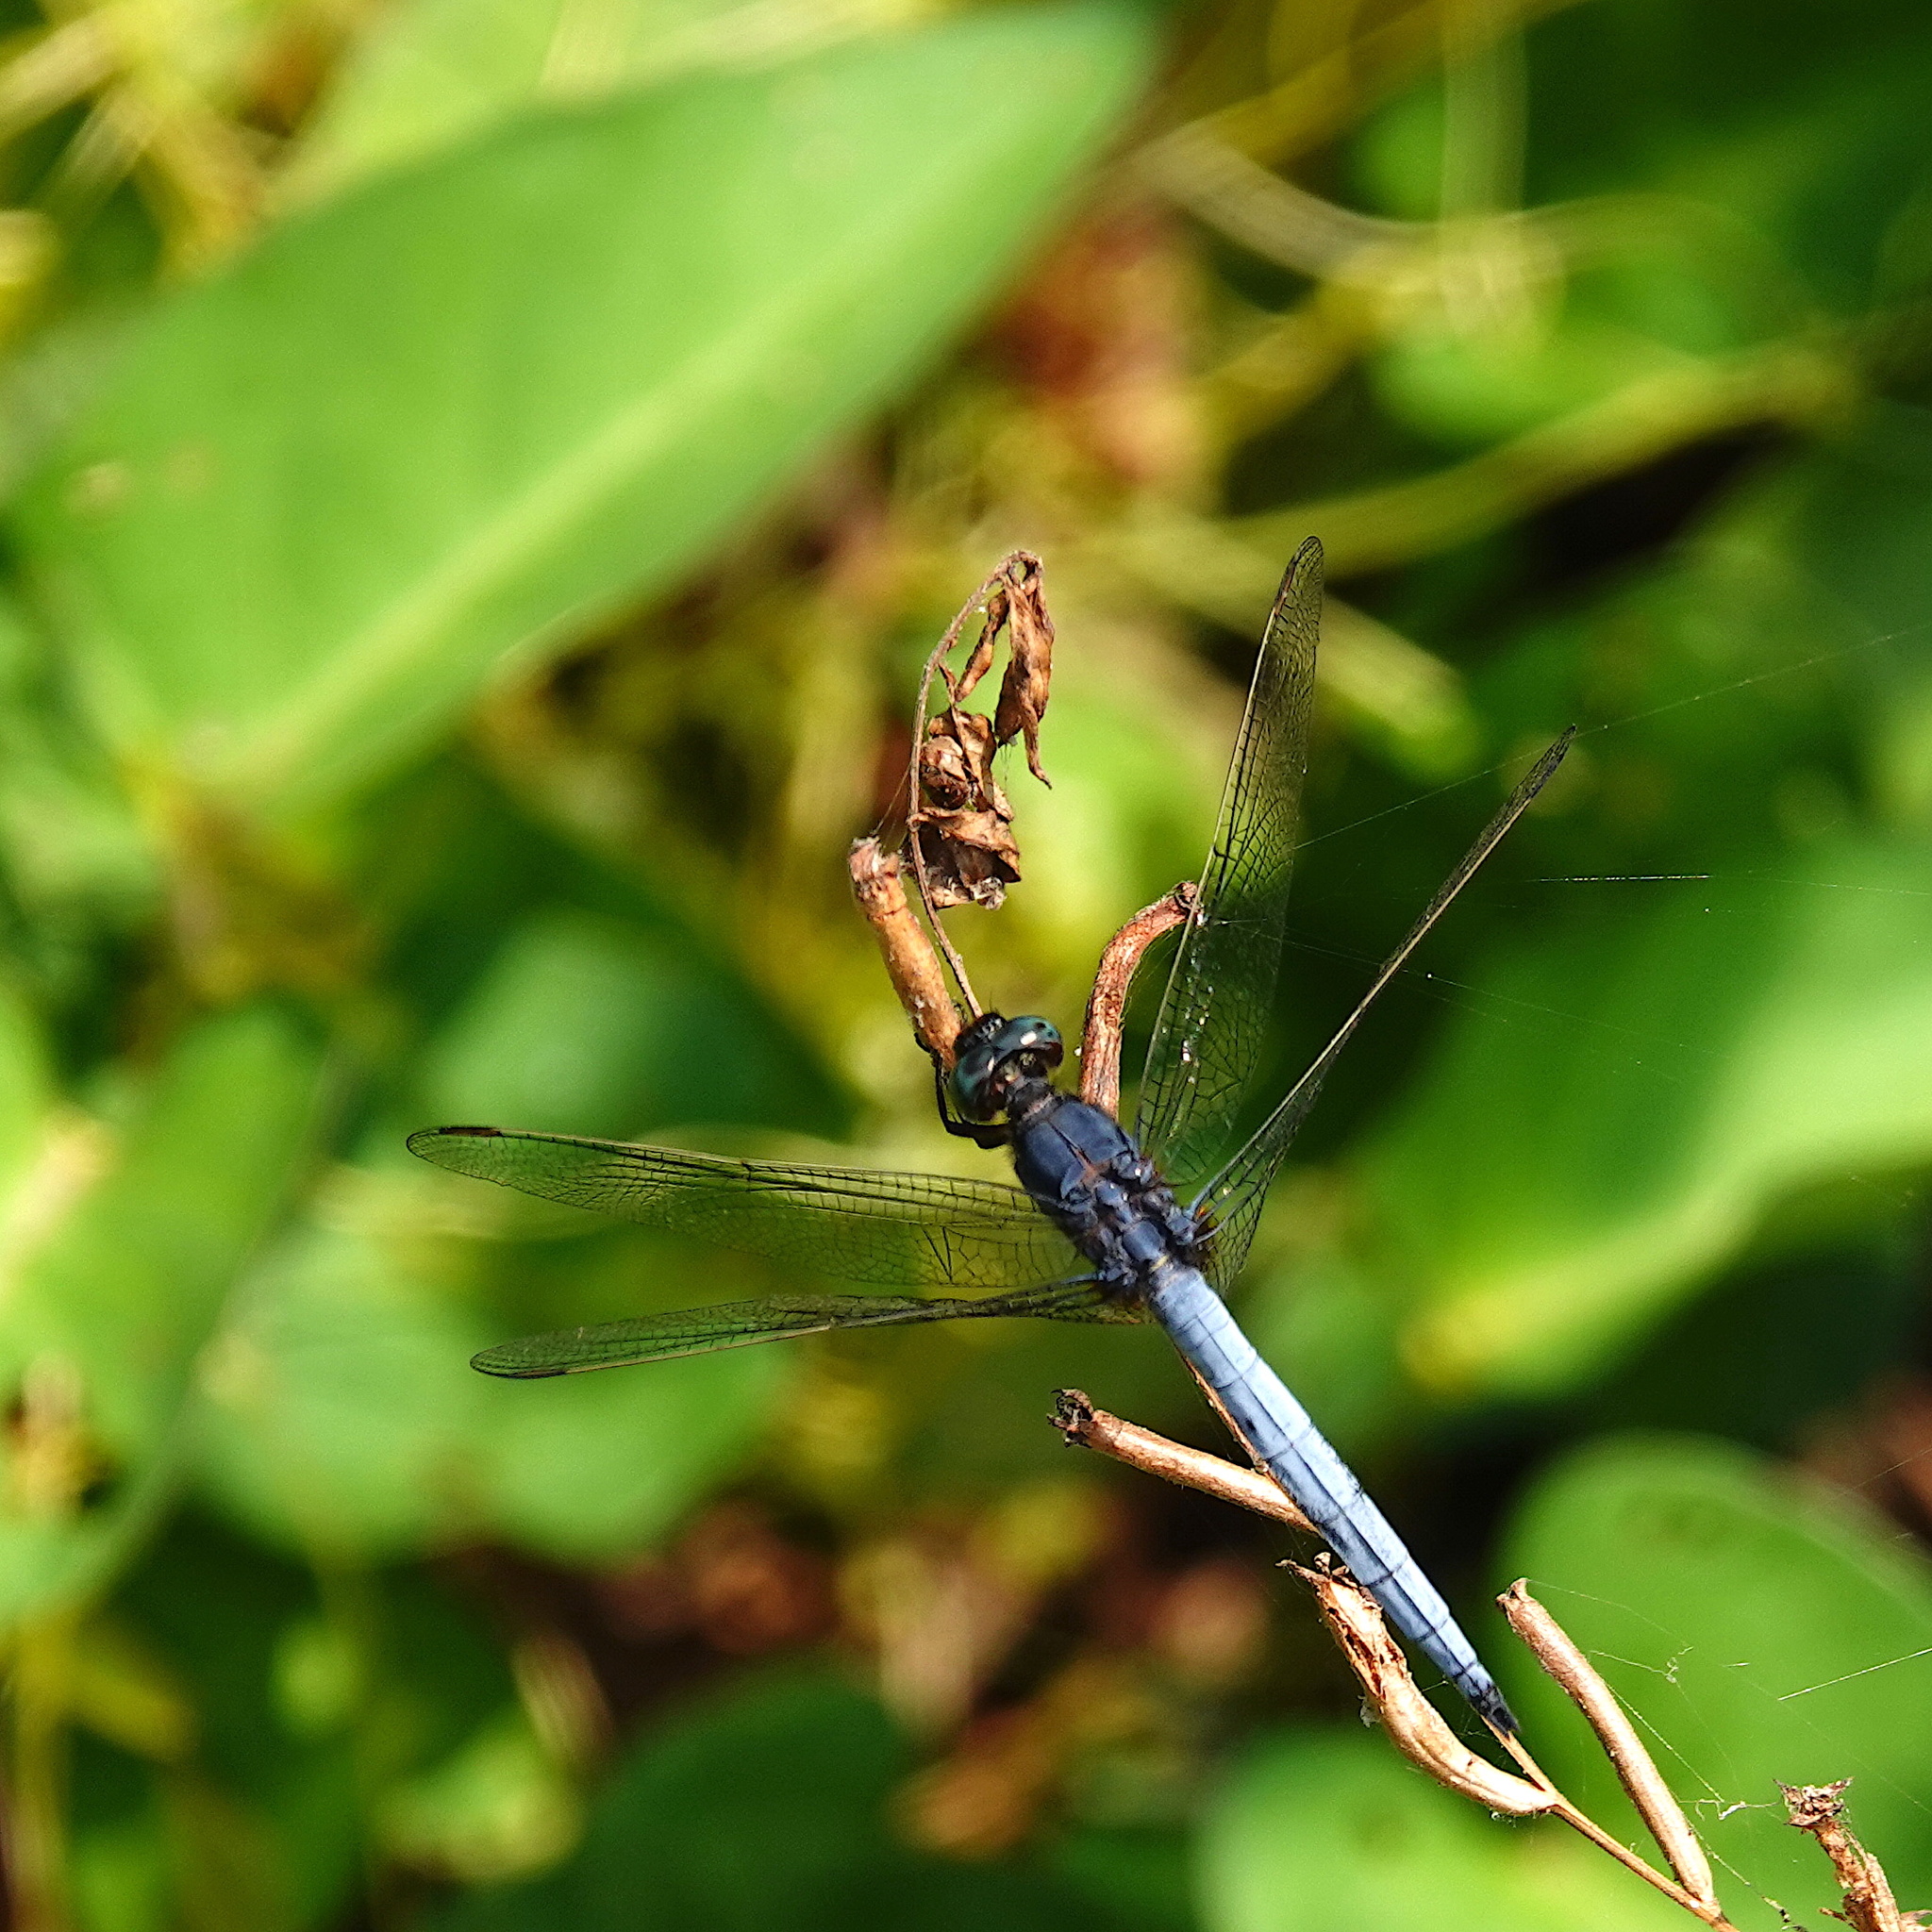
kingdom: Animalia
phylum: Arthropoda
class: Insecta
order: Odonata
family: Libellulidae
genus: Orthetrum
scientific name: Orthetrum glaucum
